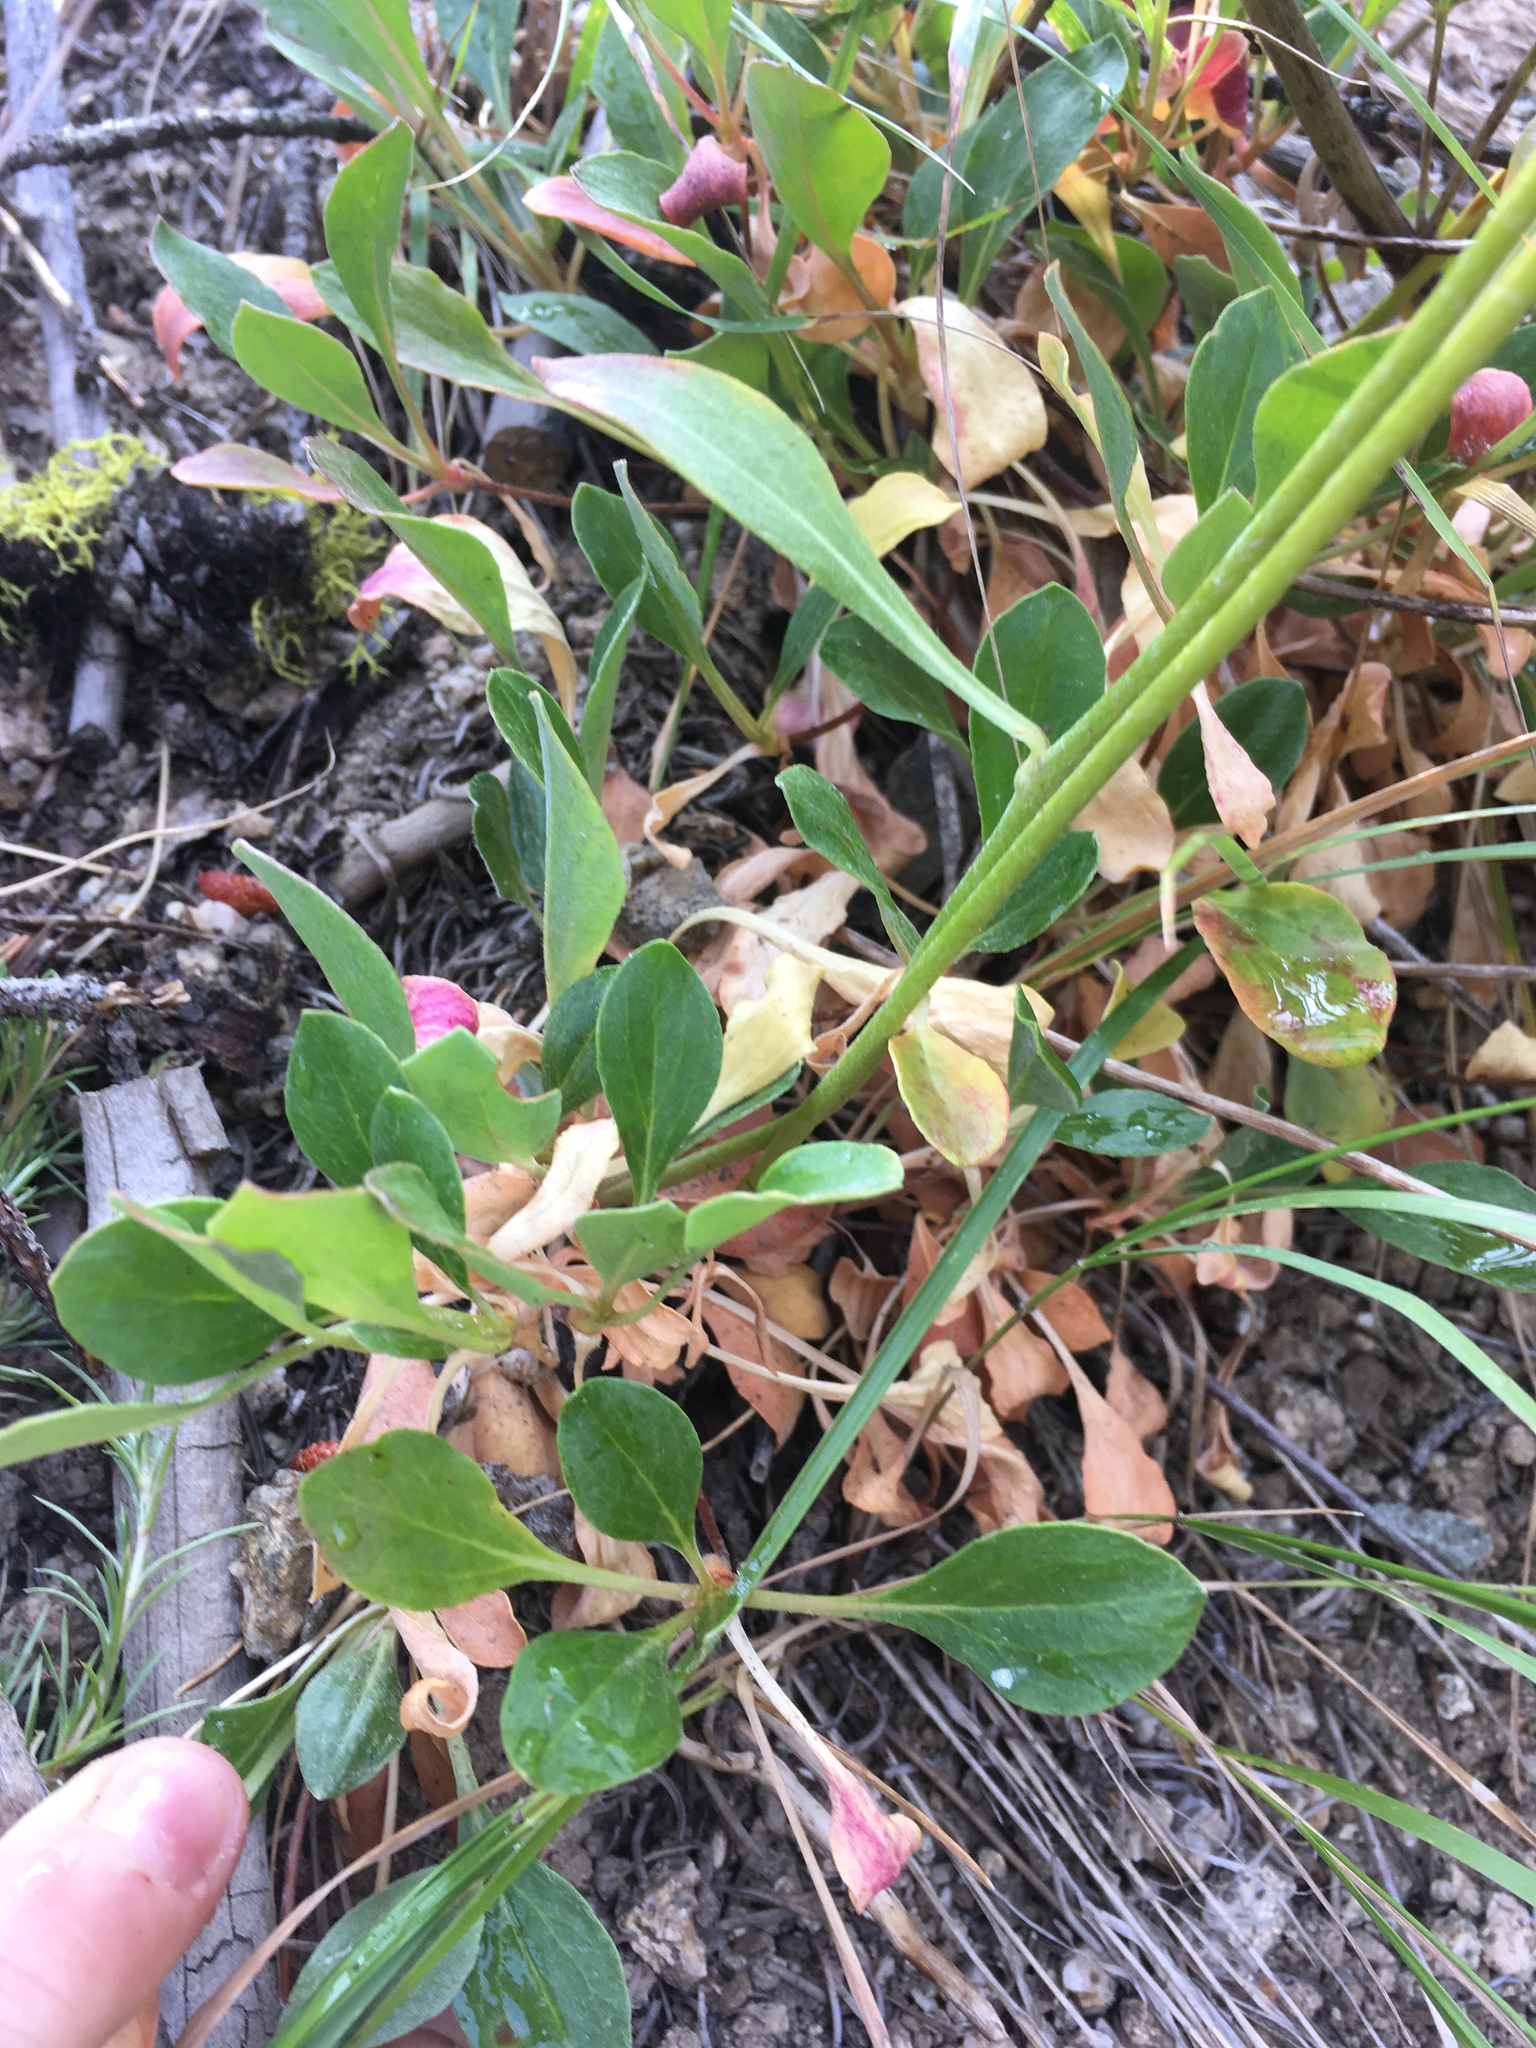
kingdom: Plantae
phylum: Tracheophyta
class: Magnoliopsida
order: Caryophyllales
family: Polygonaceae
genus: Eriogonum
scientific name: Eriogonum umbellatum
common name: Sulfur-buckwheat
